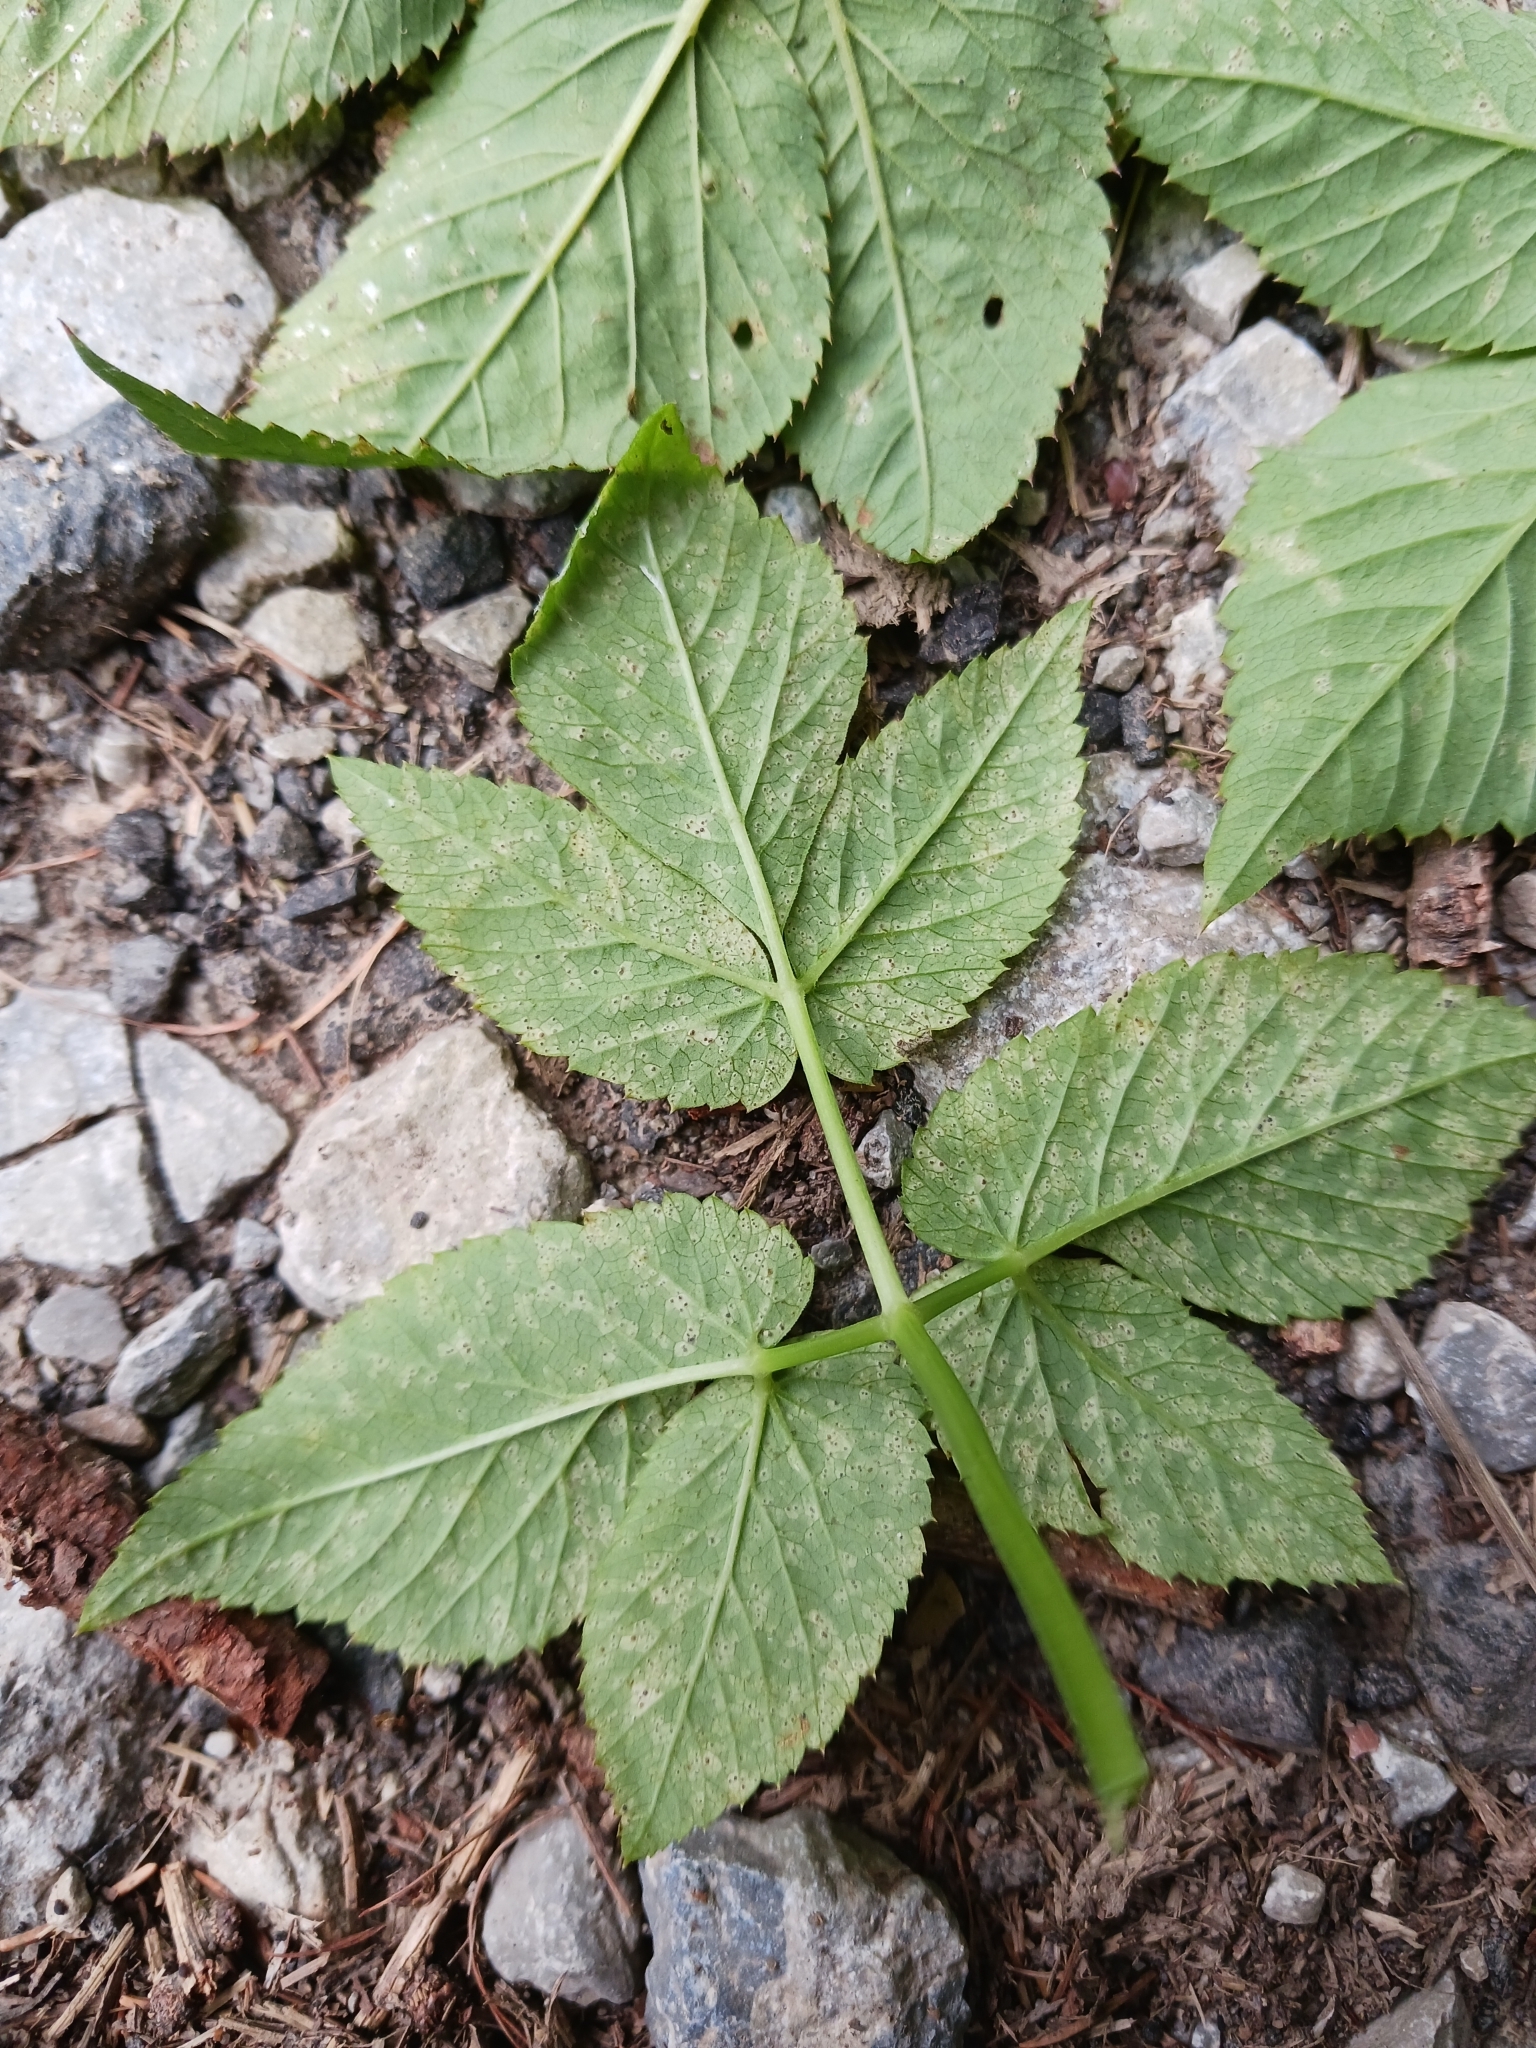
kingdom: Fungi
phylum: Ascomycota
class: Dothideomycetes
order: Mycosphaerellales
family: Mycosphaerellaceae
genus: Mycosphaerella
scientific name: Mycosphaerella podagrariae
